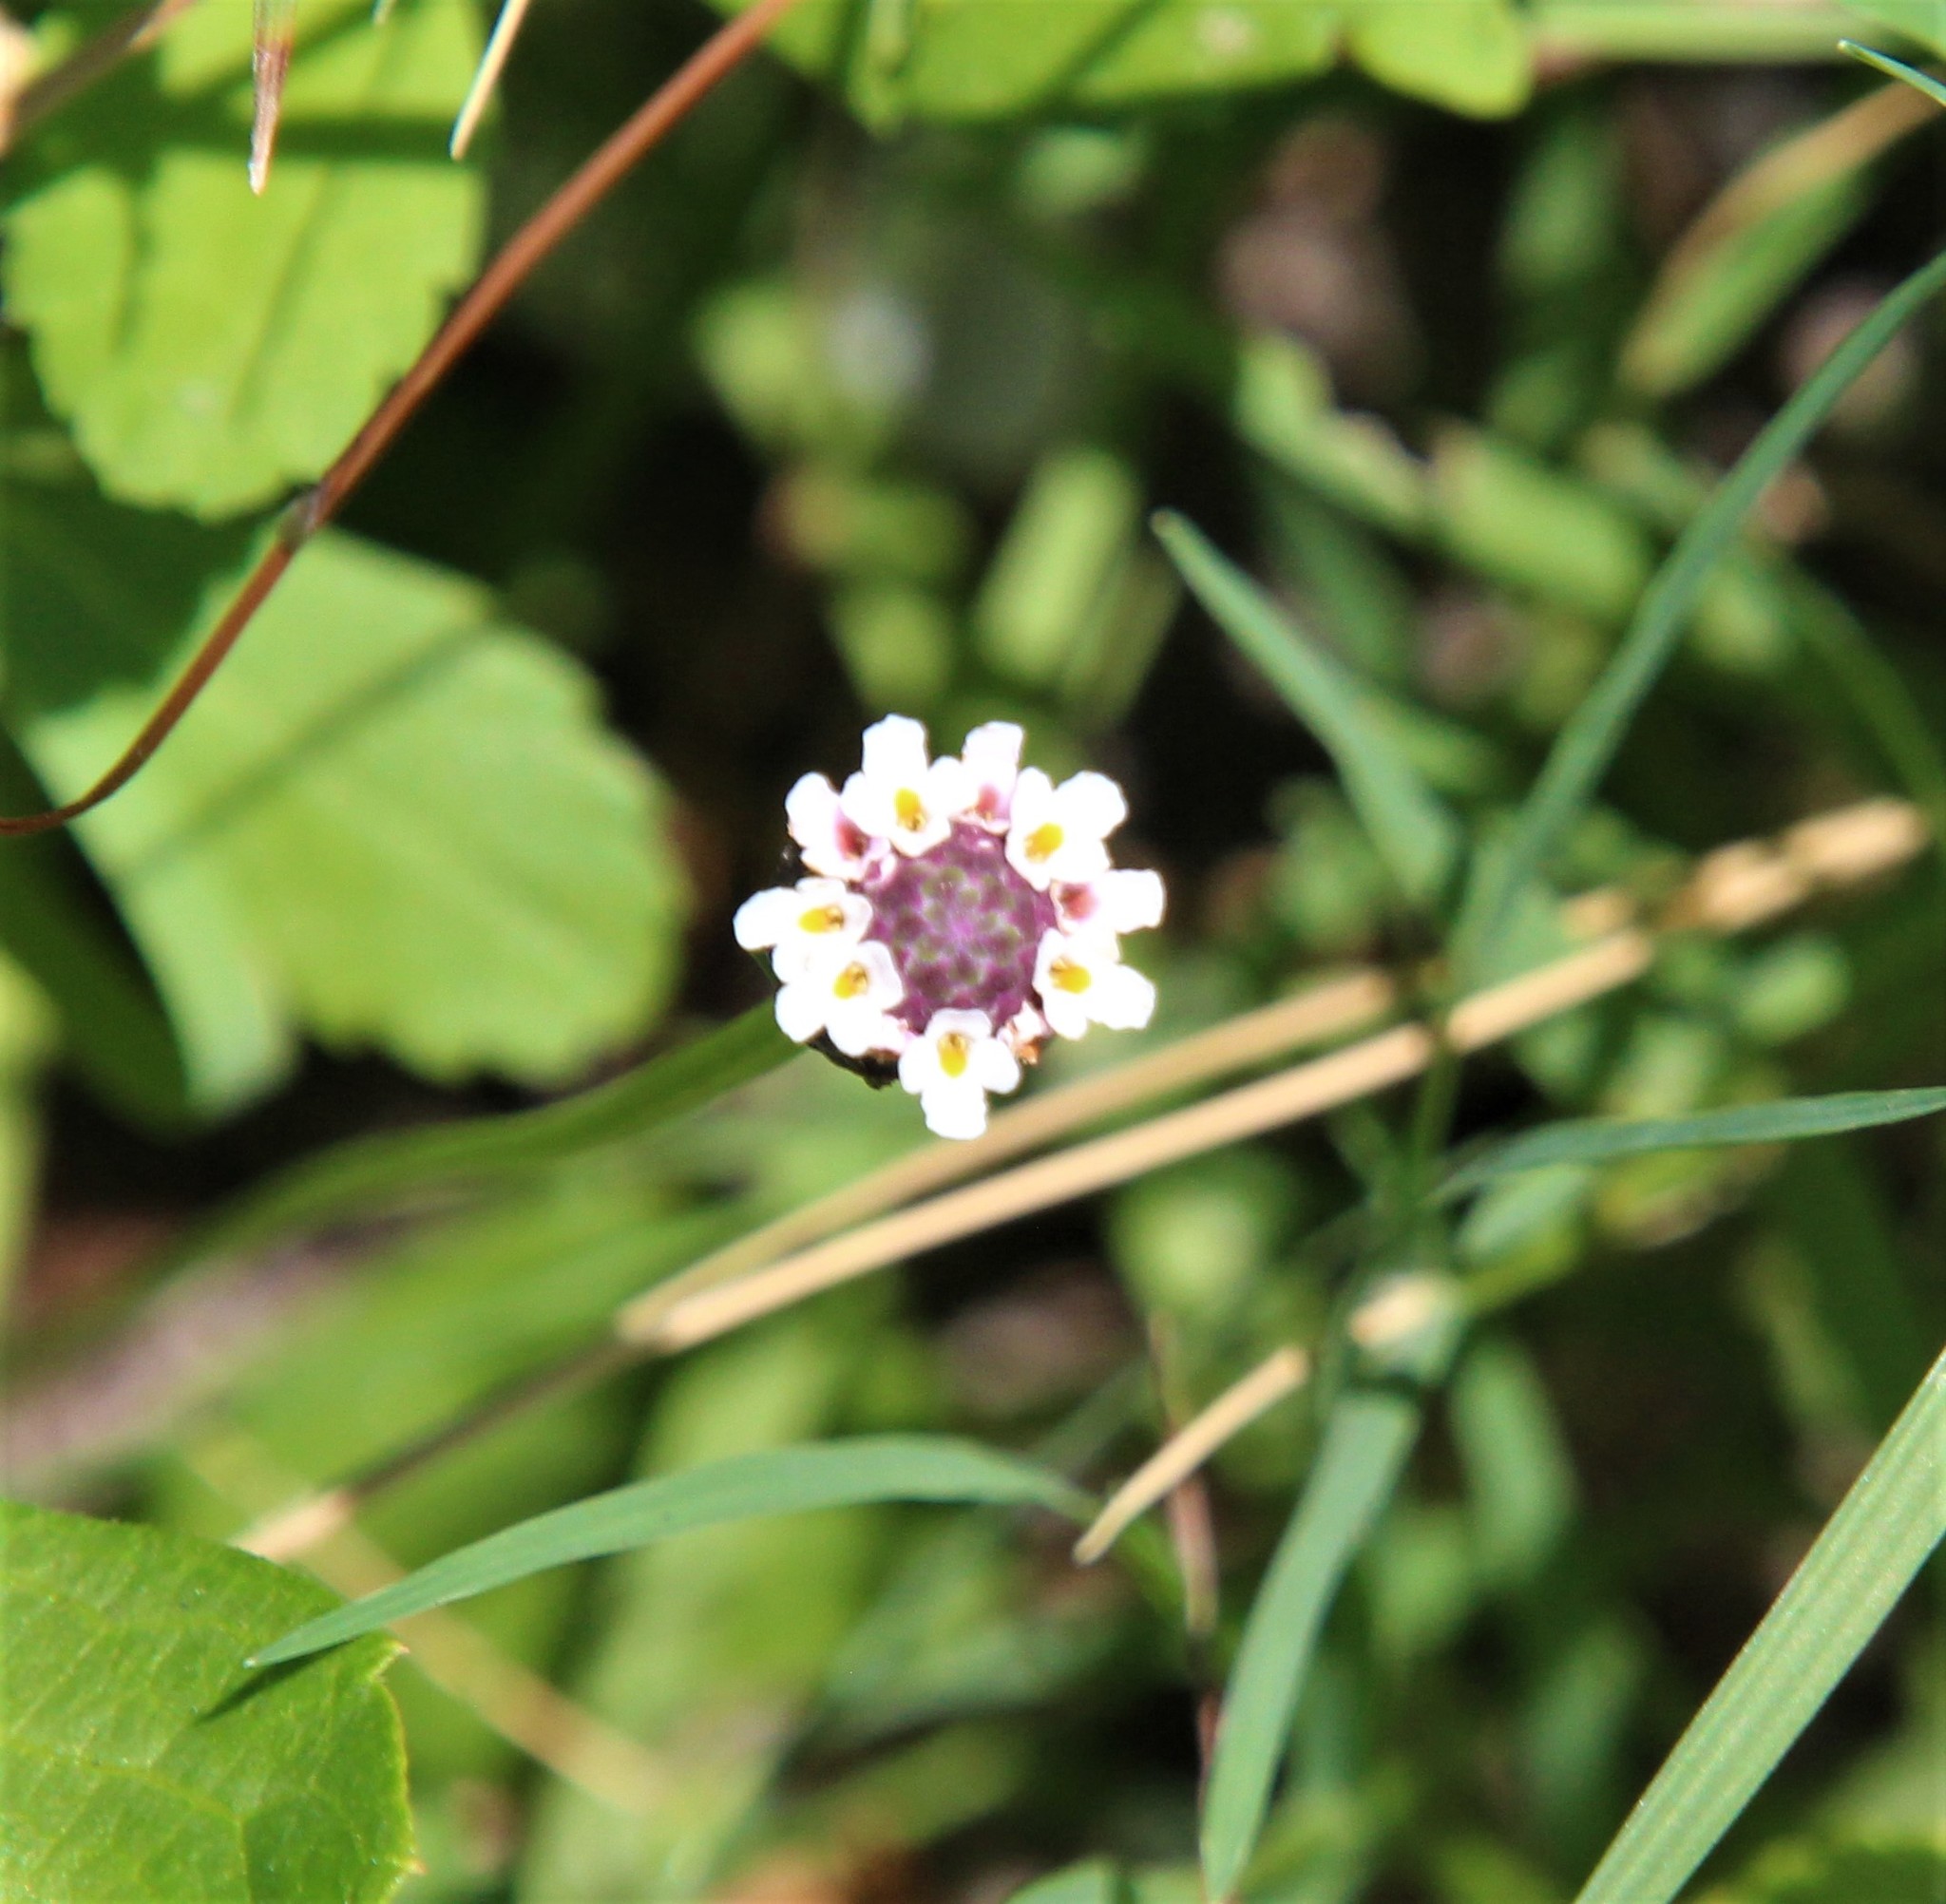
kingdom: Plantae
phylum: Tracheophyta
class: Magnoliopsida
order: Lamiales
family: Verbenaceae
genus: Phyla
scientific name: Phyla nodiflora
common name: Frogfruit
